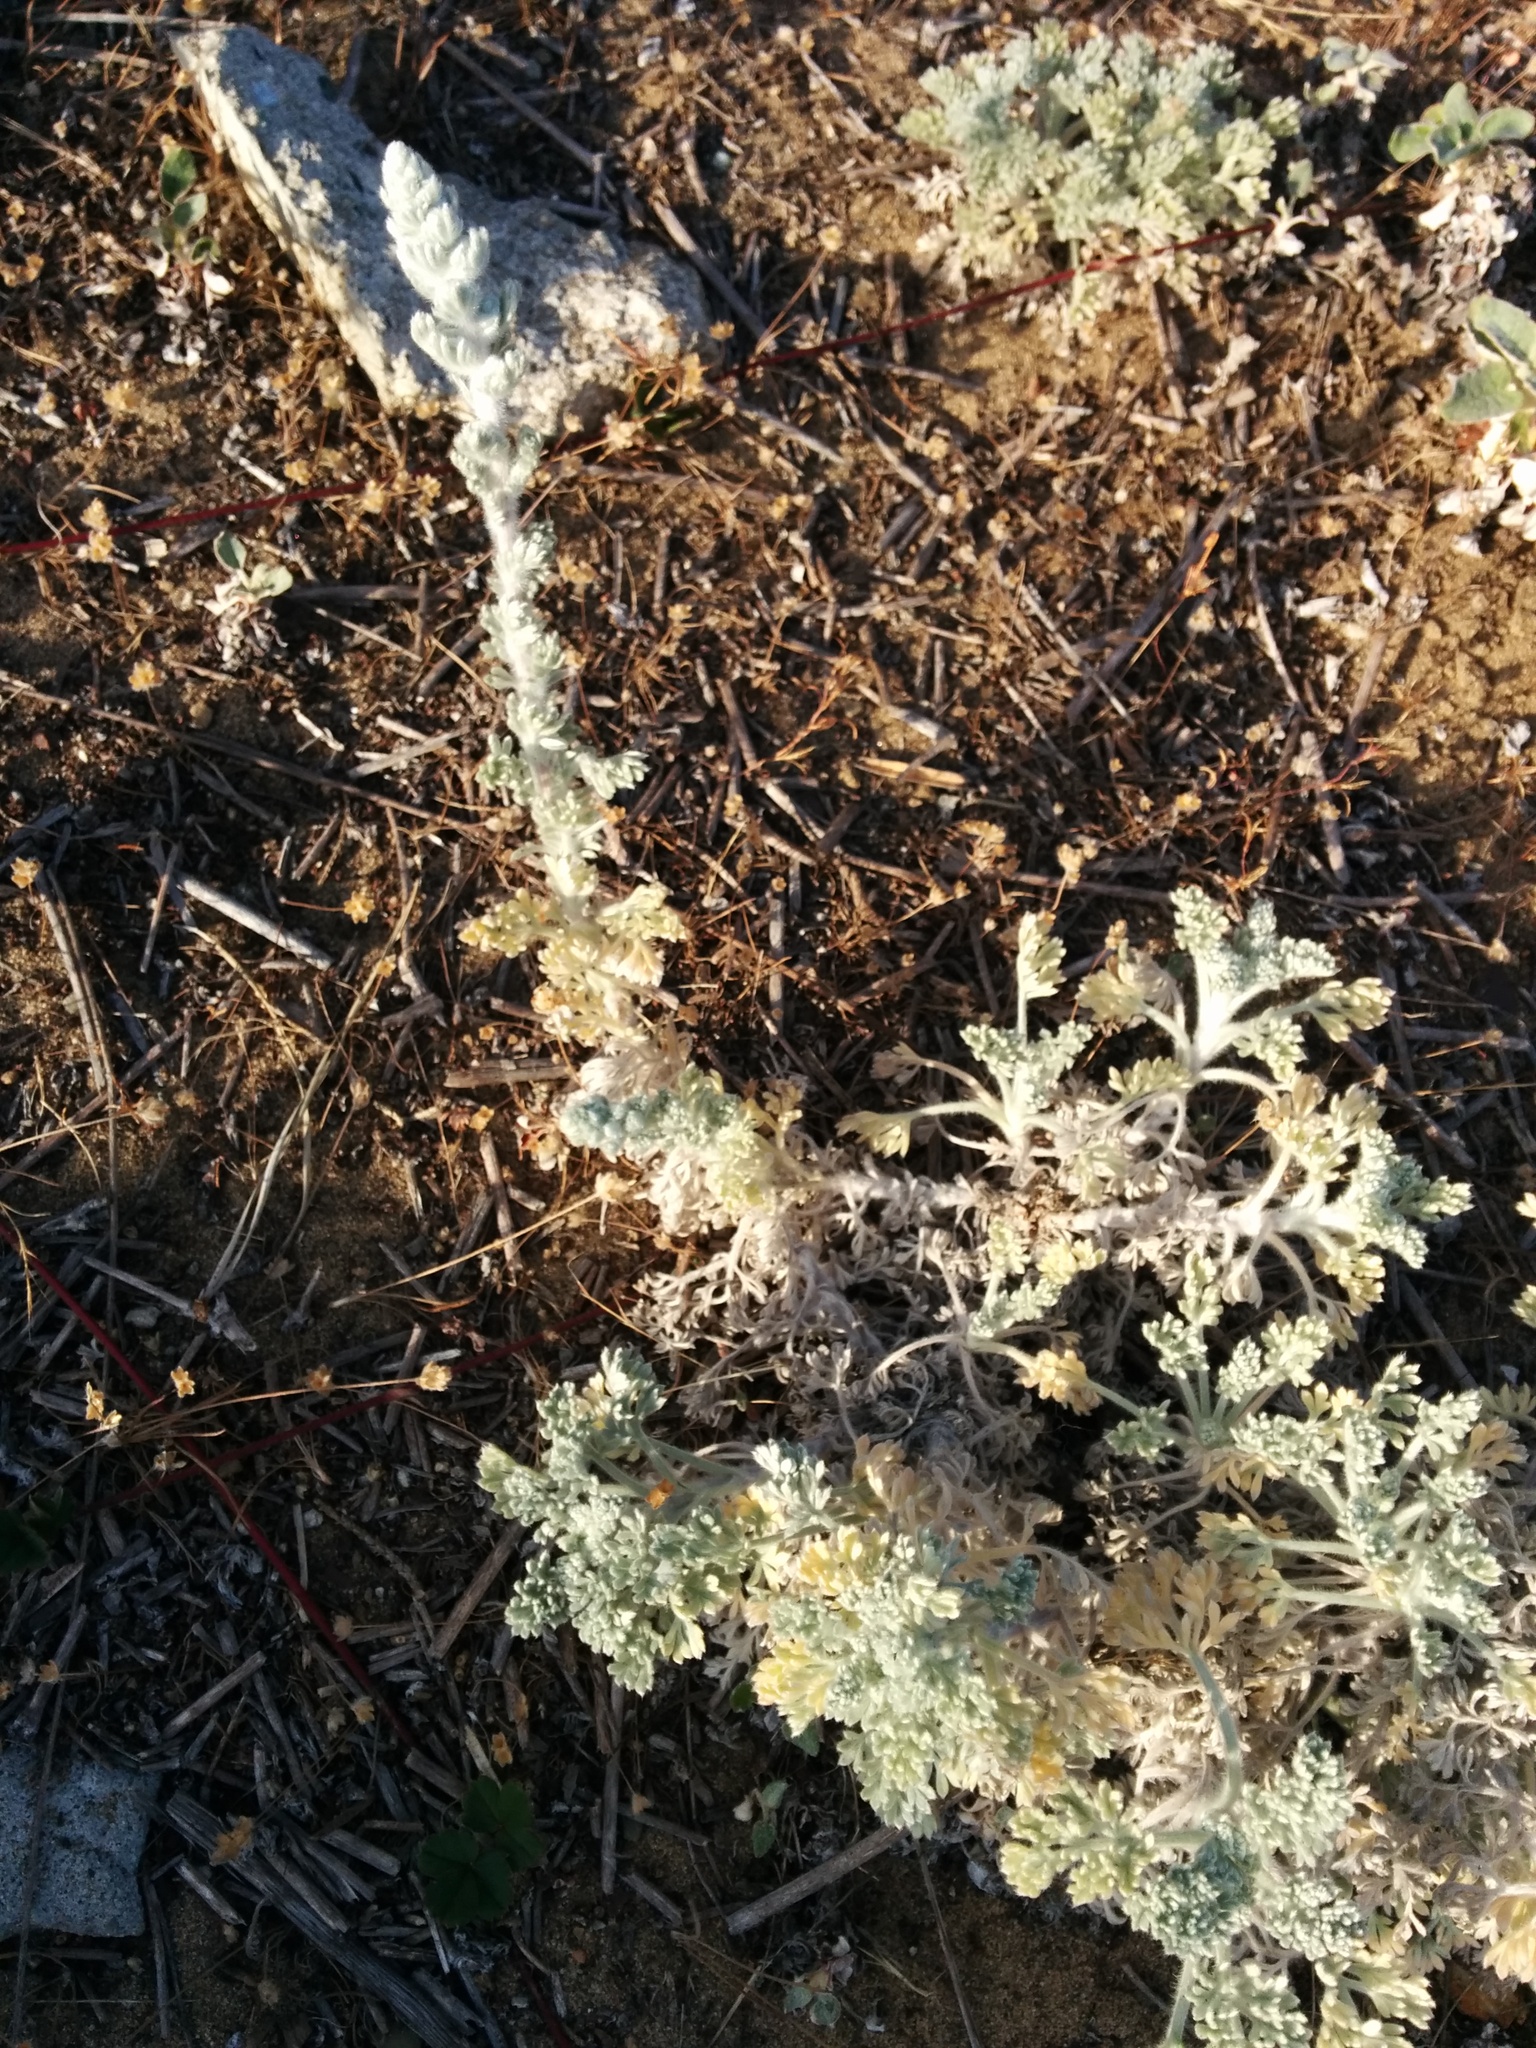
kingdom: Plantae
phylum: Tracheophyta
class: Magnoliopsida
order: Asterales
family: Asteraceae
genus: Artemisia
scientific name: Artemisia pycnocephala
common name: Coastal sagewort
